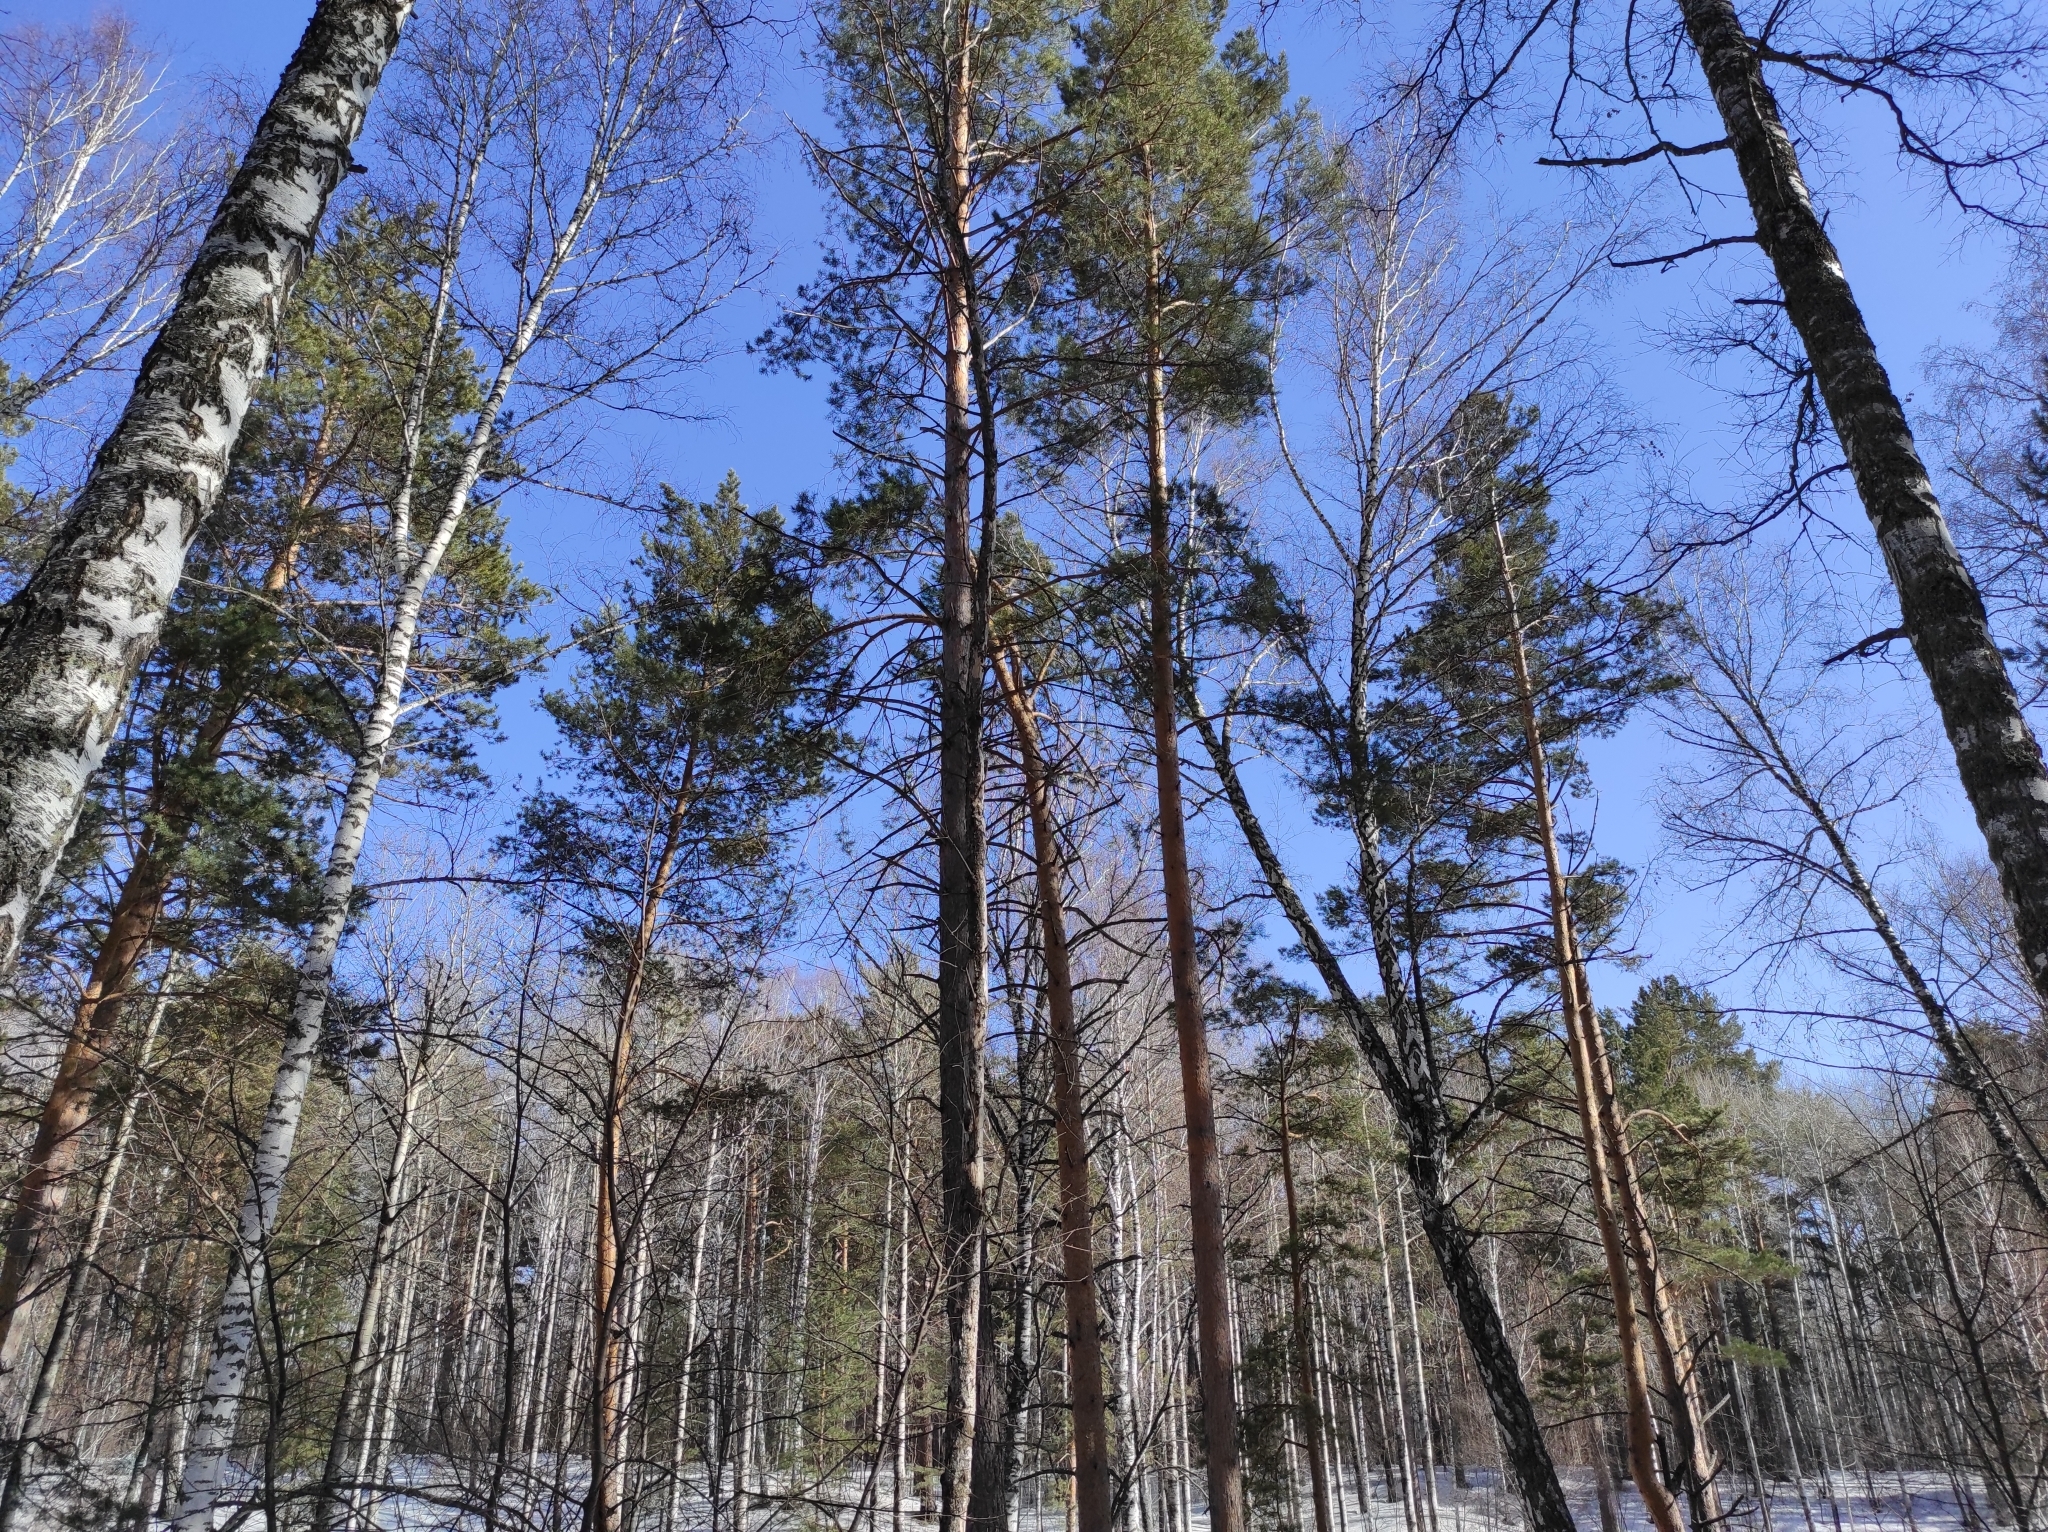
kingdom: Plantae
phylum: Tracheophyta
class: Pinopsida
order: Pinales
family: Pinaceae
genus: Pinus
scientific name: Pinus sylvestris
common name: Scots pine
